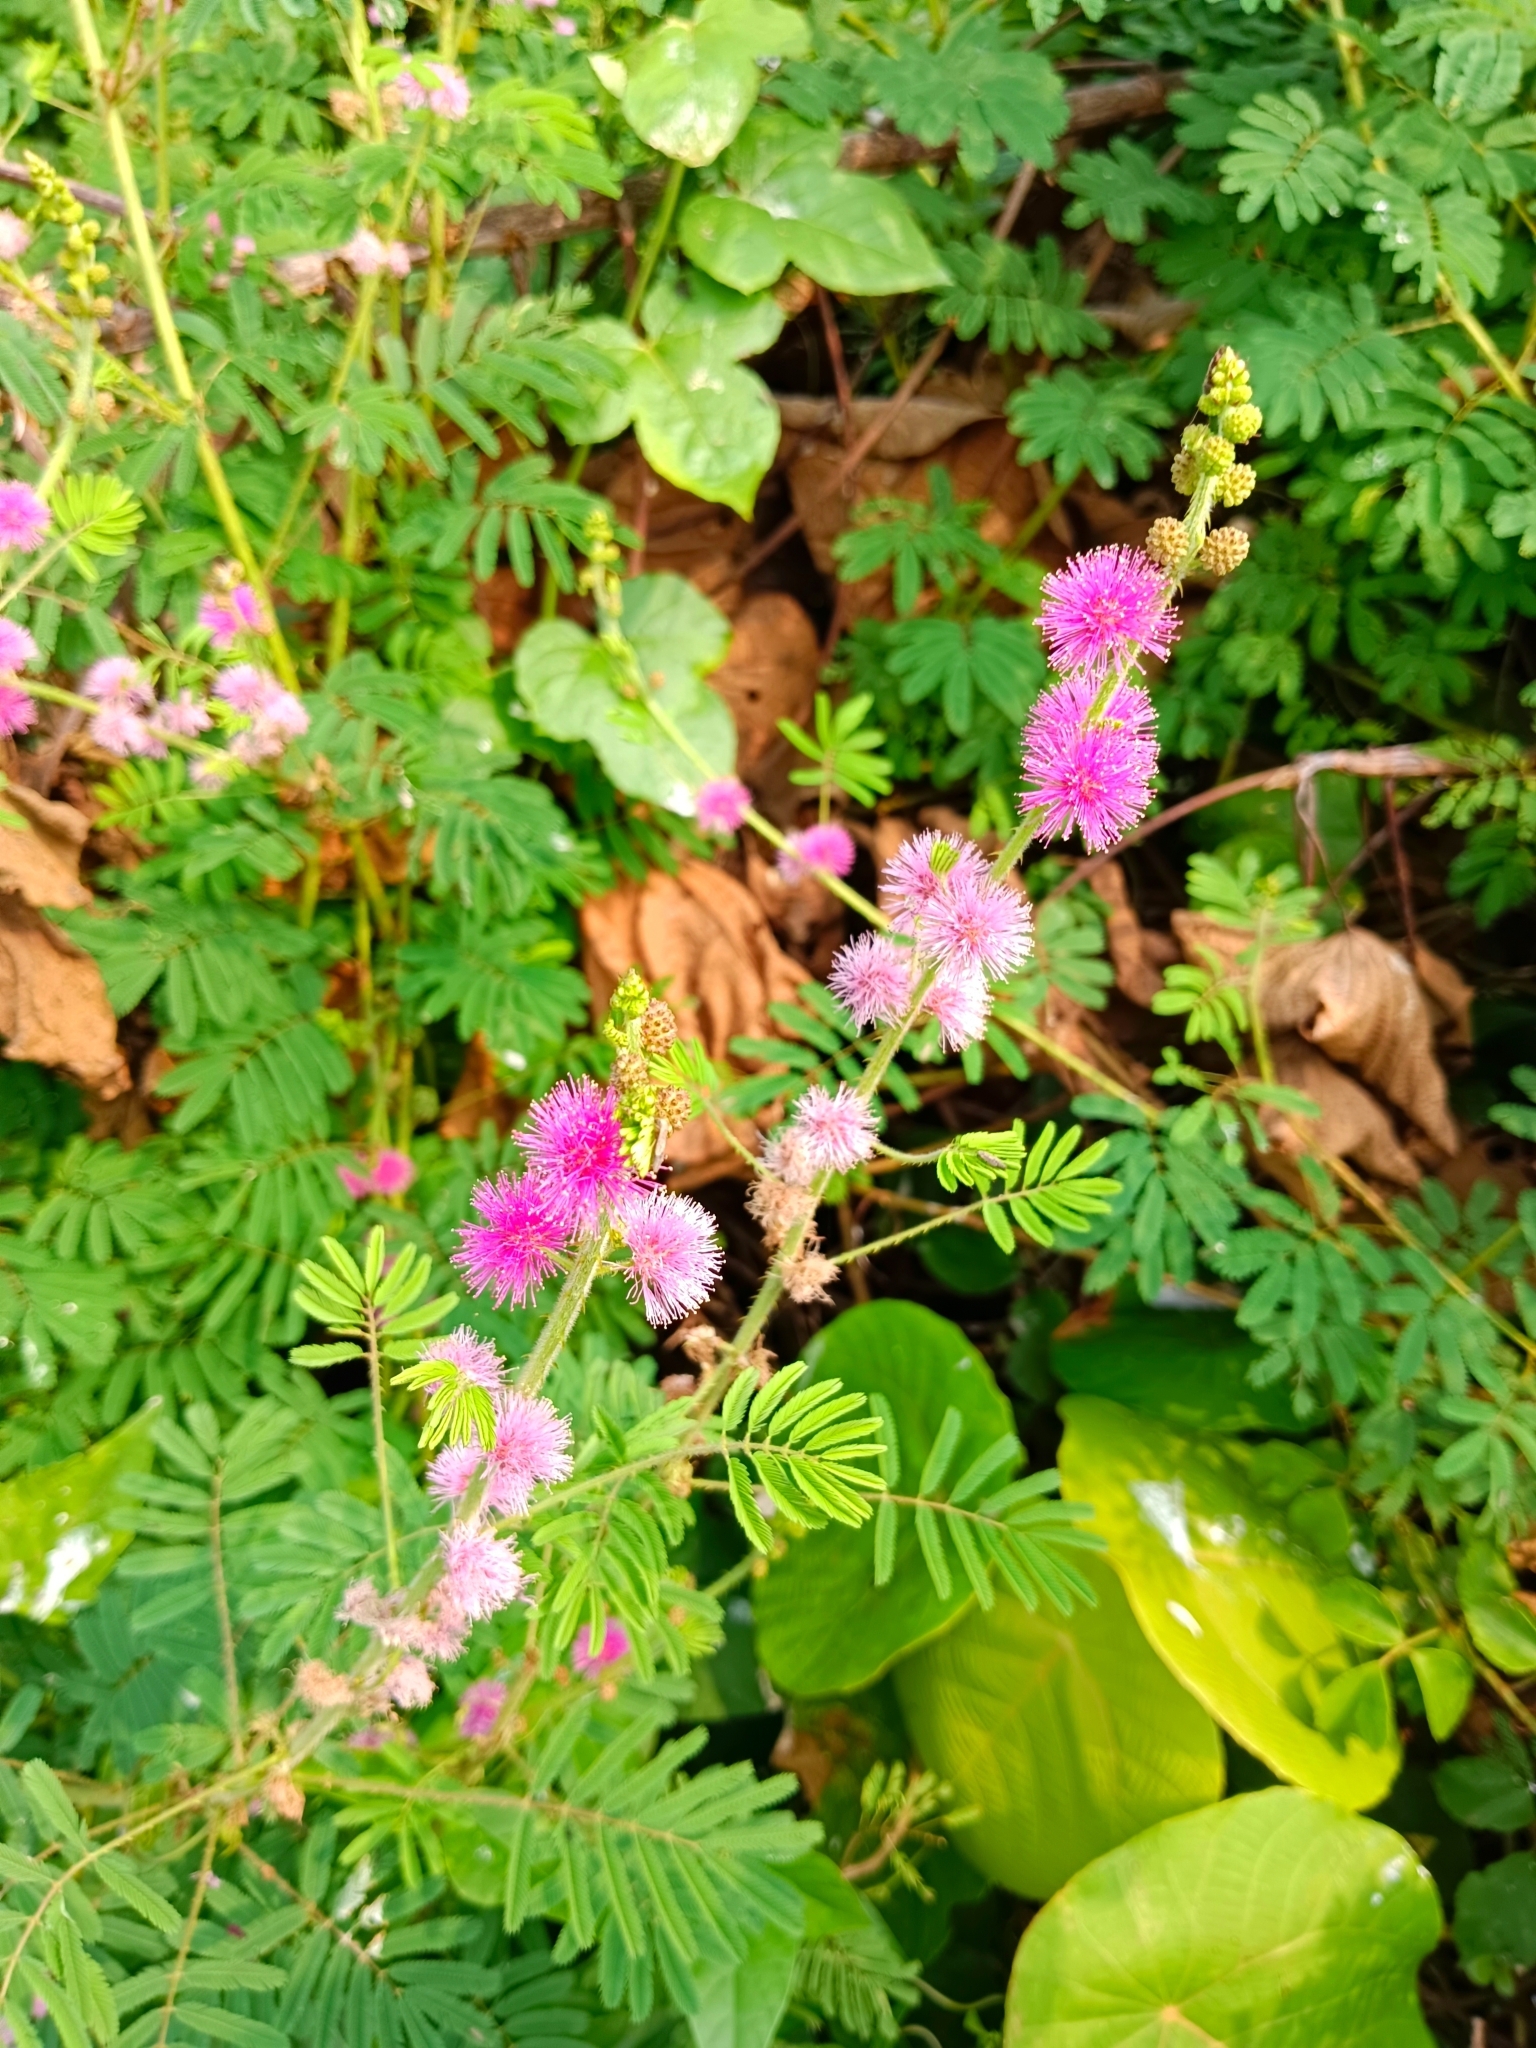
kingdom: Plantae
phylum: Tracheophyta
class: Magnoliopsida
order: Fabales
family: Fabaceae
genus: Mimosa
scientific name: Mimosa diplotricha
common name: Giant sensitive-plant
